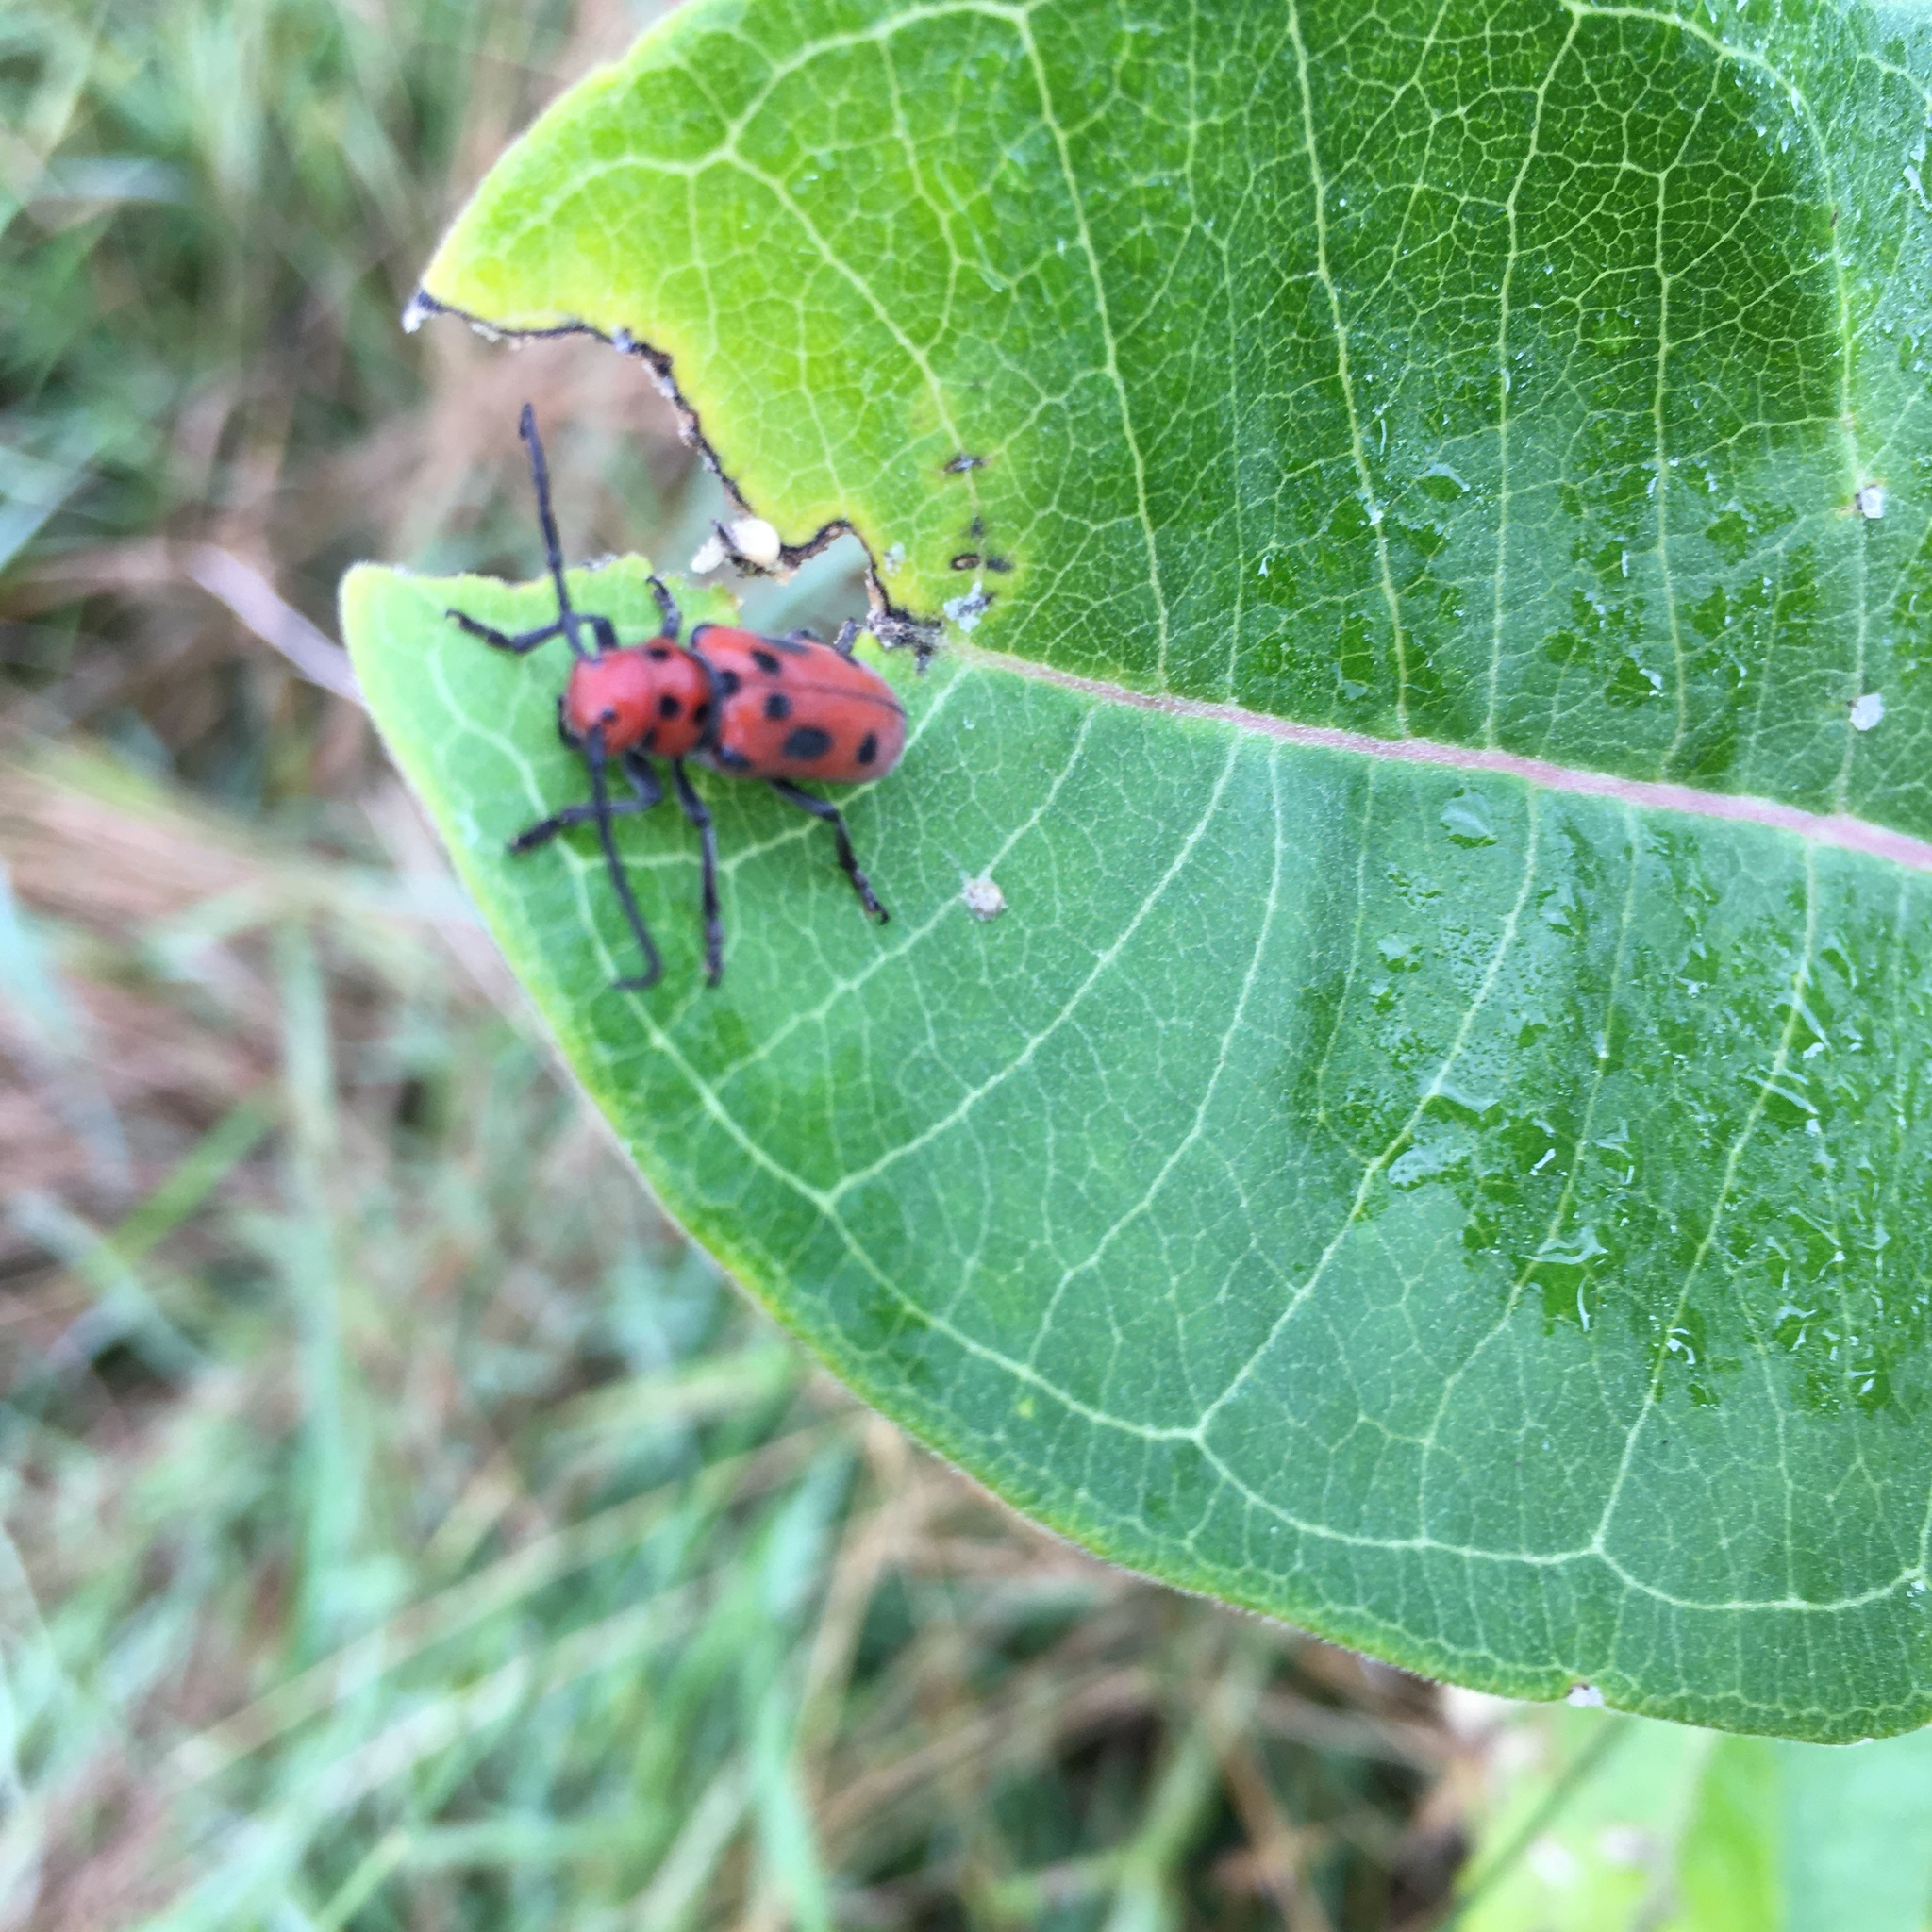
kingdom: Animalia
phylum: Arthropoda
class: Insecta
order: Coleoptera
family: Cerambycidae
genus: Tetraopes
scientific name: Tetraopes tetrophthalmus
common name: Red milkweed beetle
